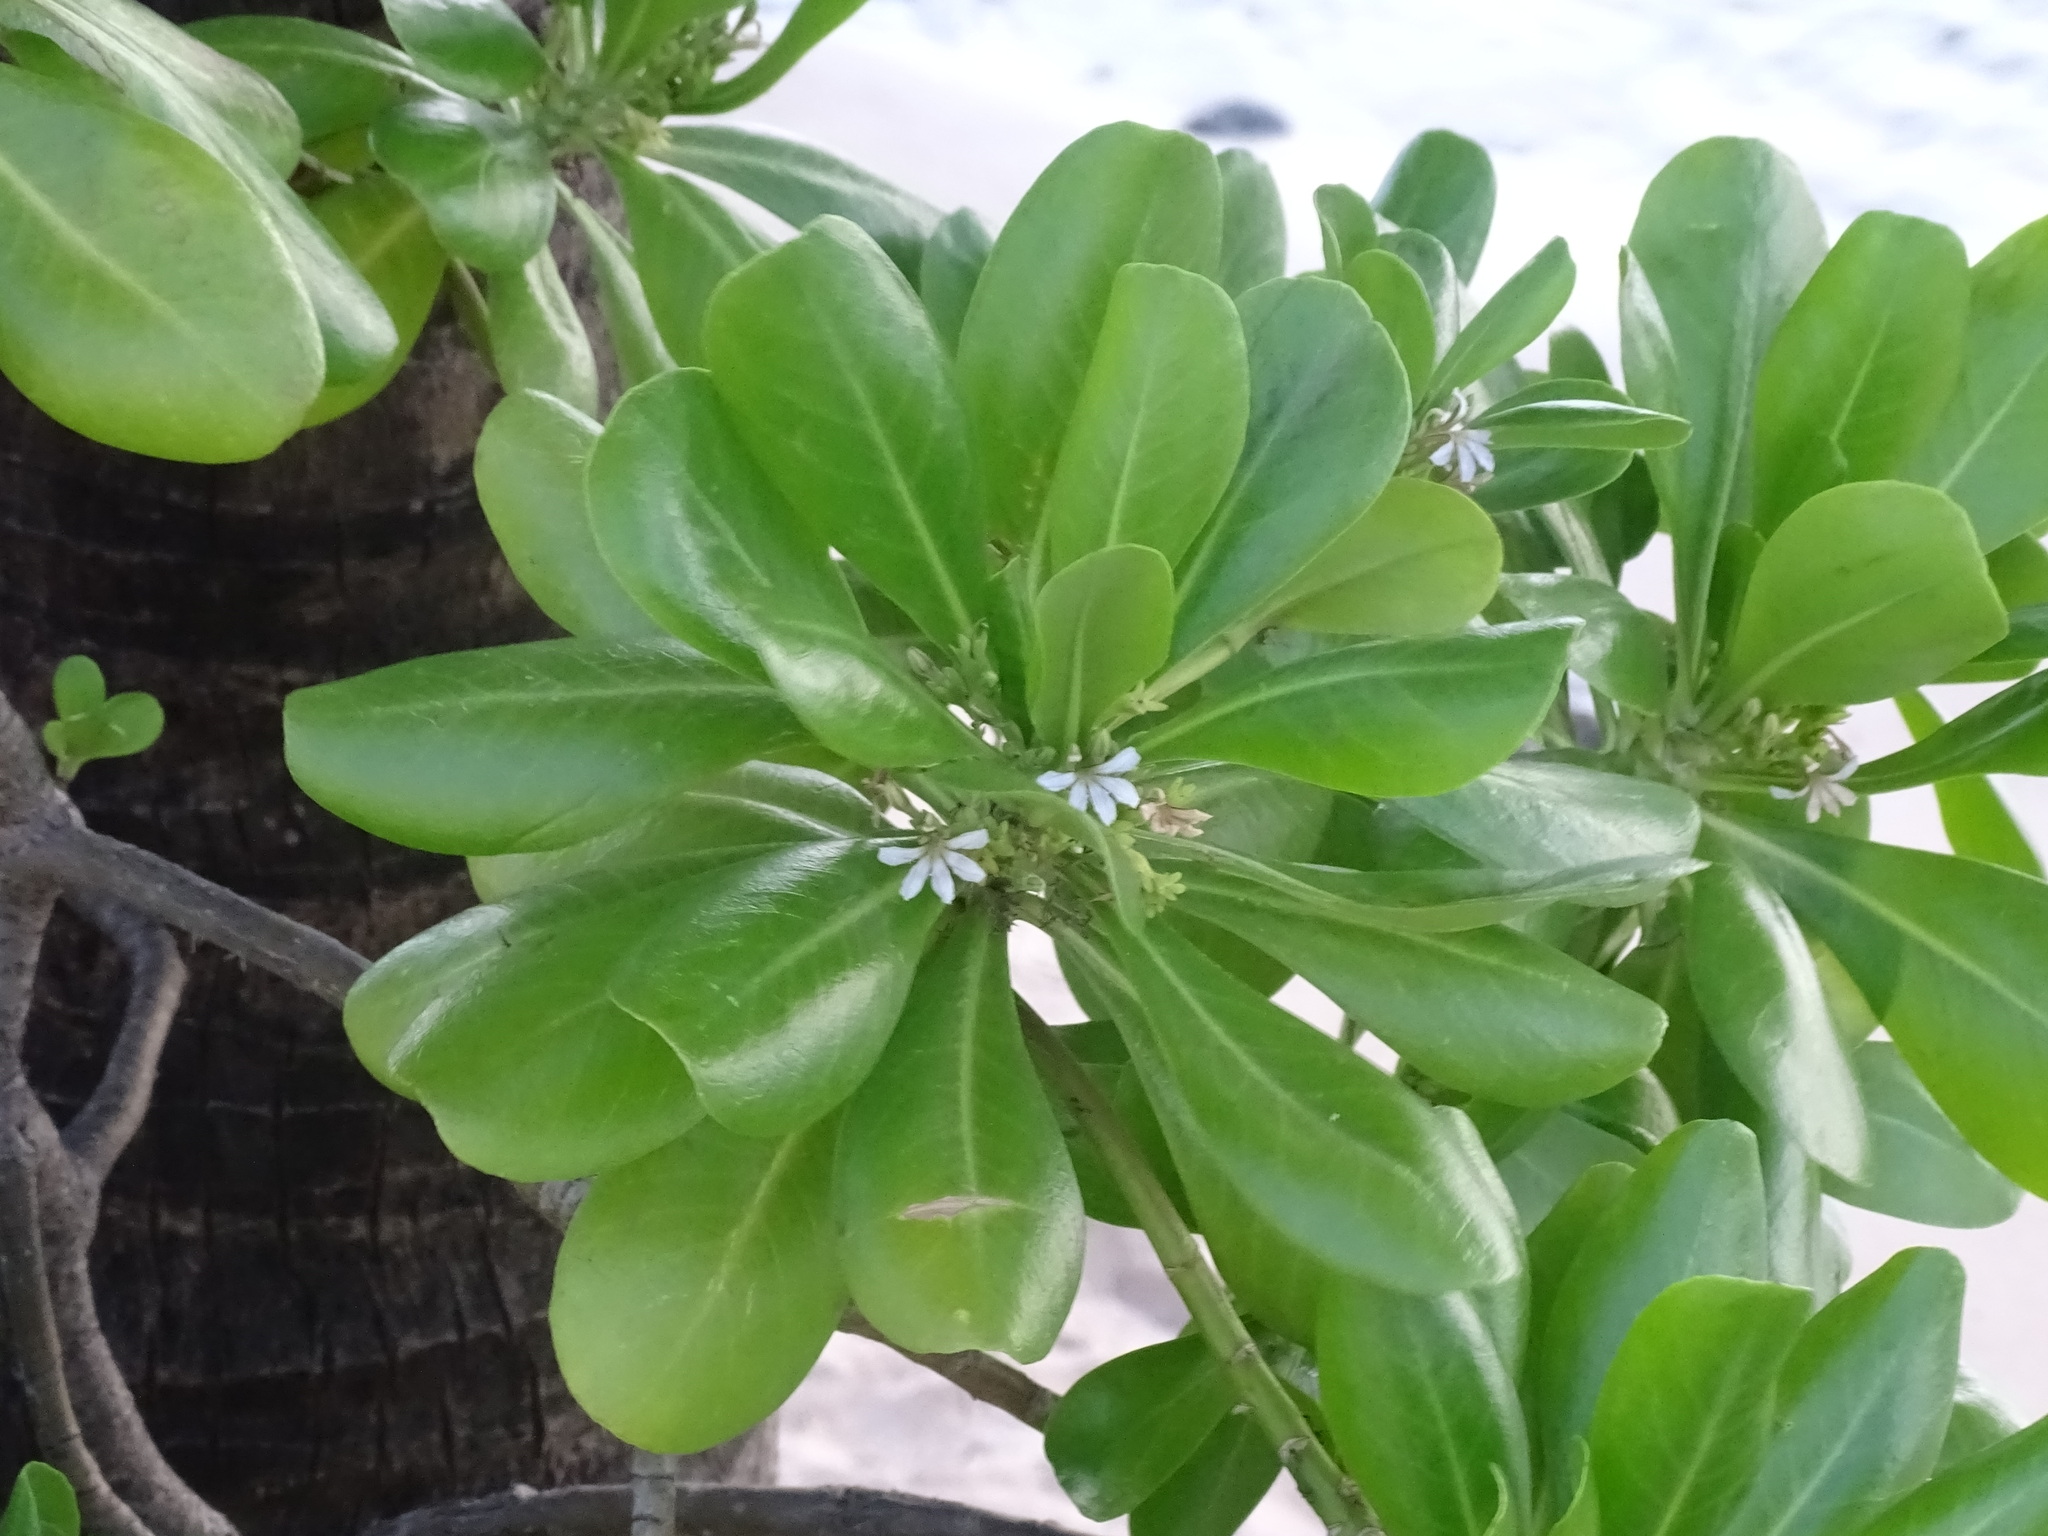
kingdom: Plantae
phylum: Tracheophyta
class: Magnoliopsida
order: Asterales
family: Goodeniaceae
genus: Scaevola
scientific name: Scaevola taccada
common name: Sea lettucetree
